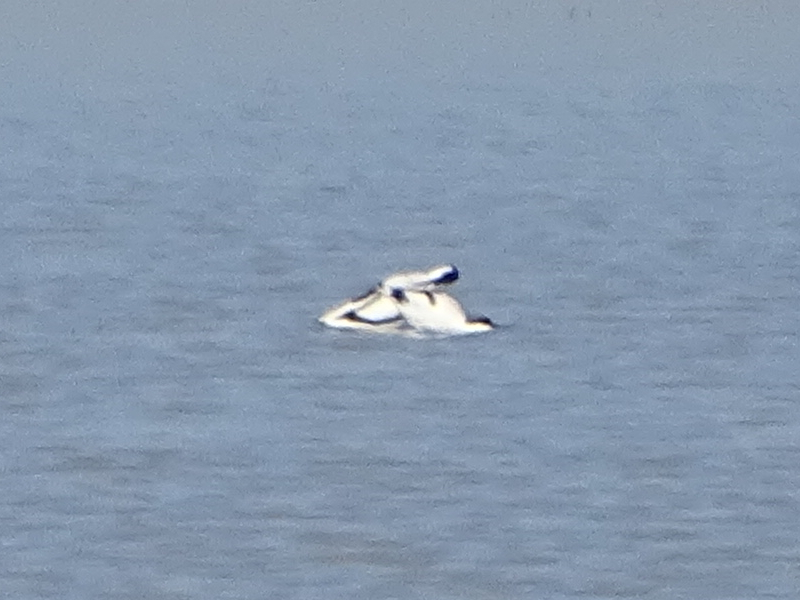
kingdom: Animalia
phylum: Chordata
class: Aves
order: Charadriiformes
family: Recurvirostridae
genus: Recurvirostra
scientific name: Recurvirostra avosetta
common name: Pied avocet
